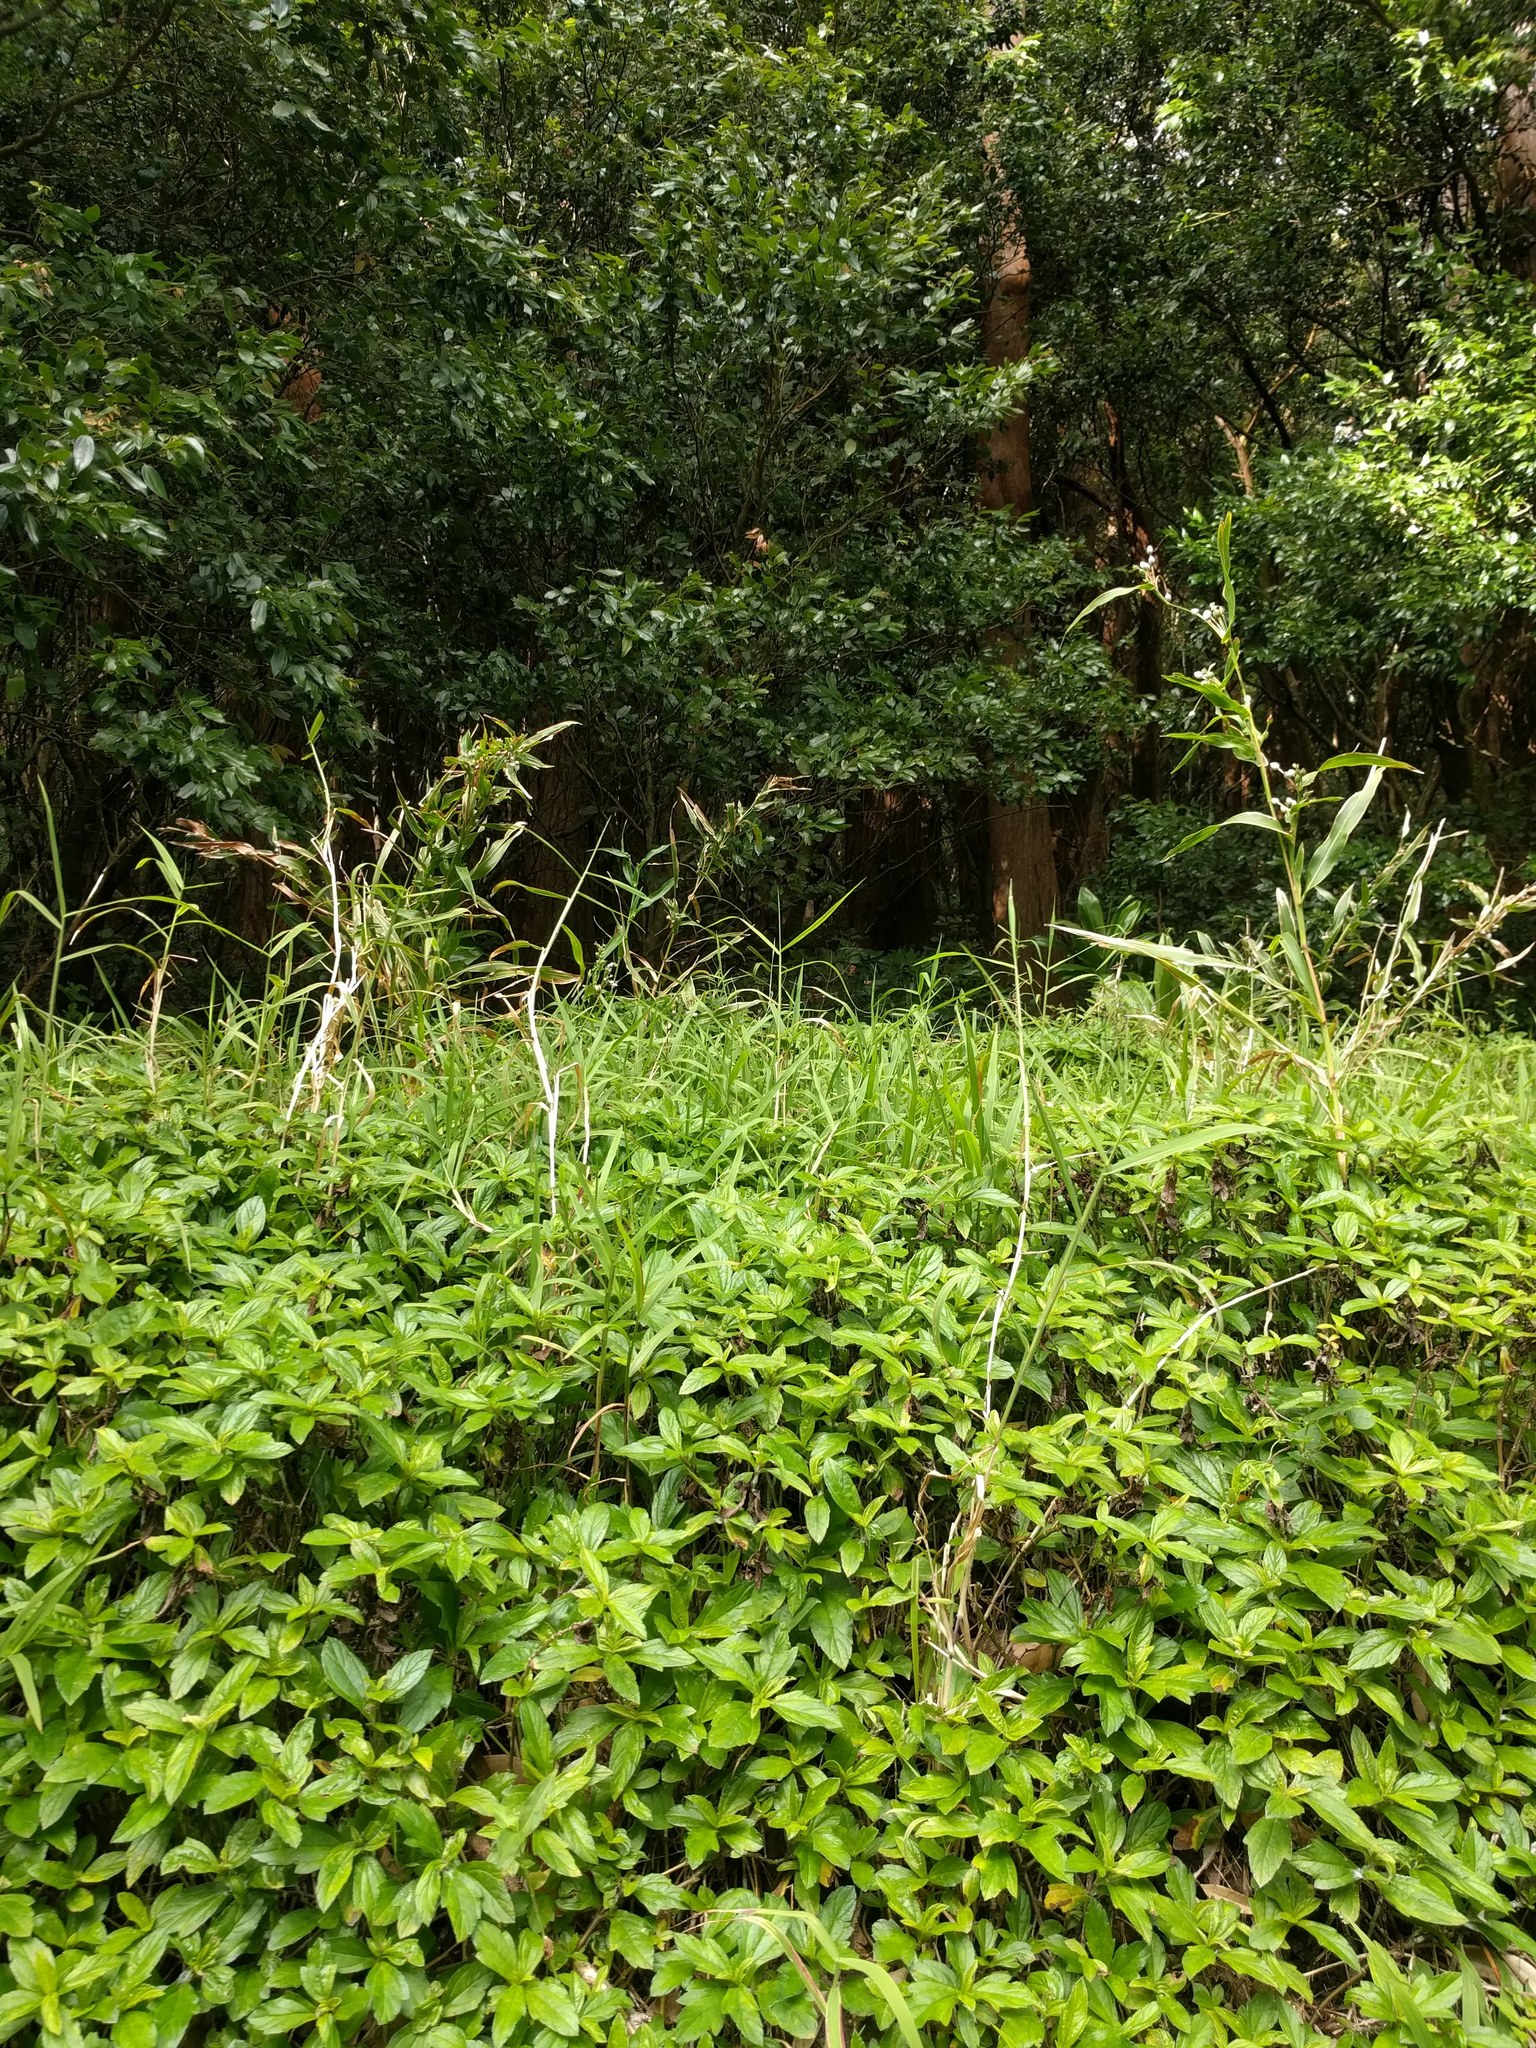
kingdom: Plantae
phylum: Tracheophyta
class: Liliopsida
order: Poales
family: Poaceae
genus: Coix
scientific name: Coix lacryma-jobi
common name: Job's tears
